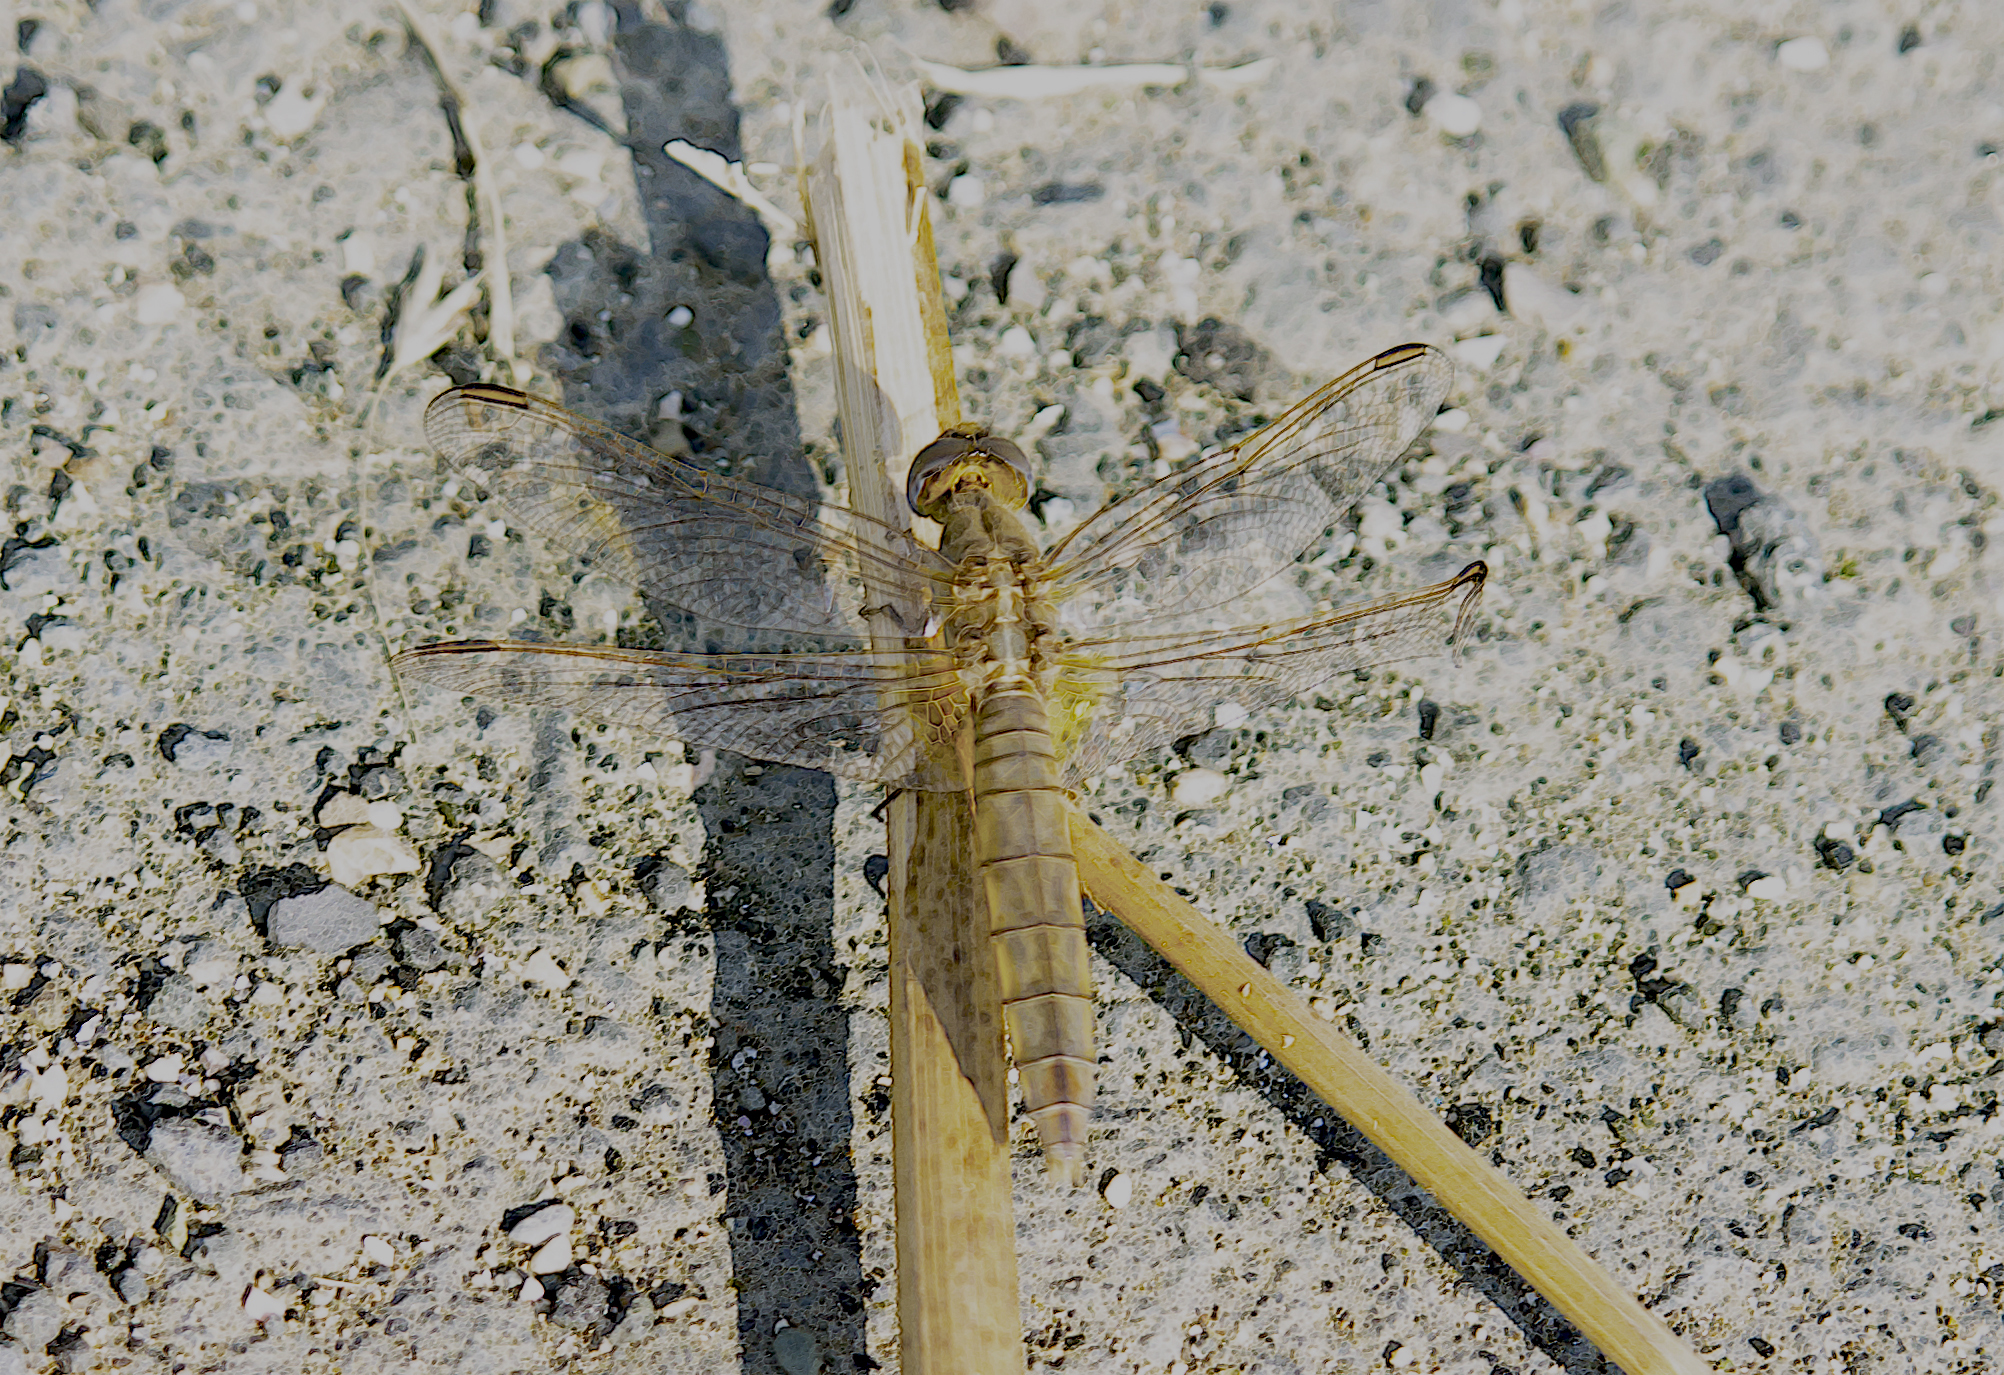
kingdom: Animalia
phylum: Arthropoda
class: Insecta
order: Odonata
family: Libellulidae
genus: Crocothemis
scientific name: Crocothemis erythraea
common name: Scarlet dragonfly
